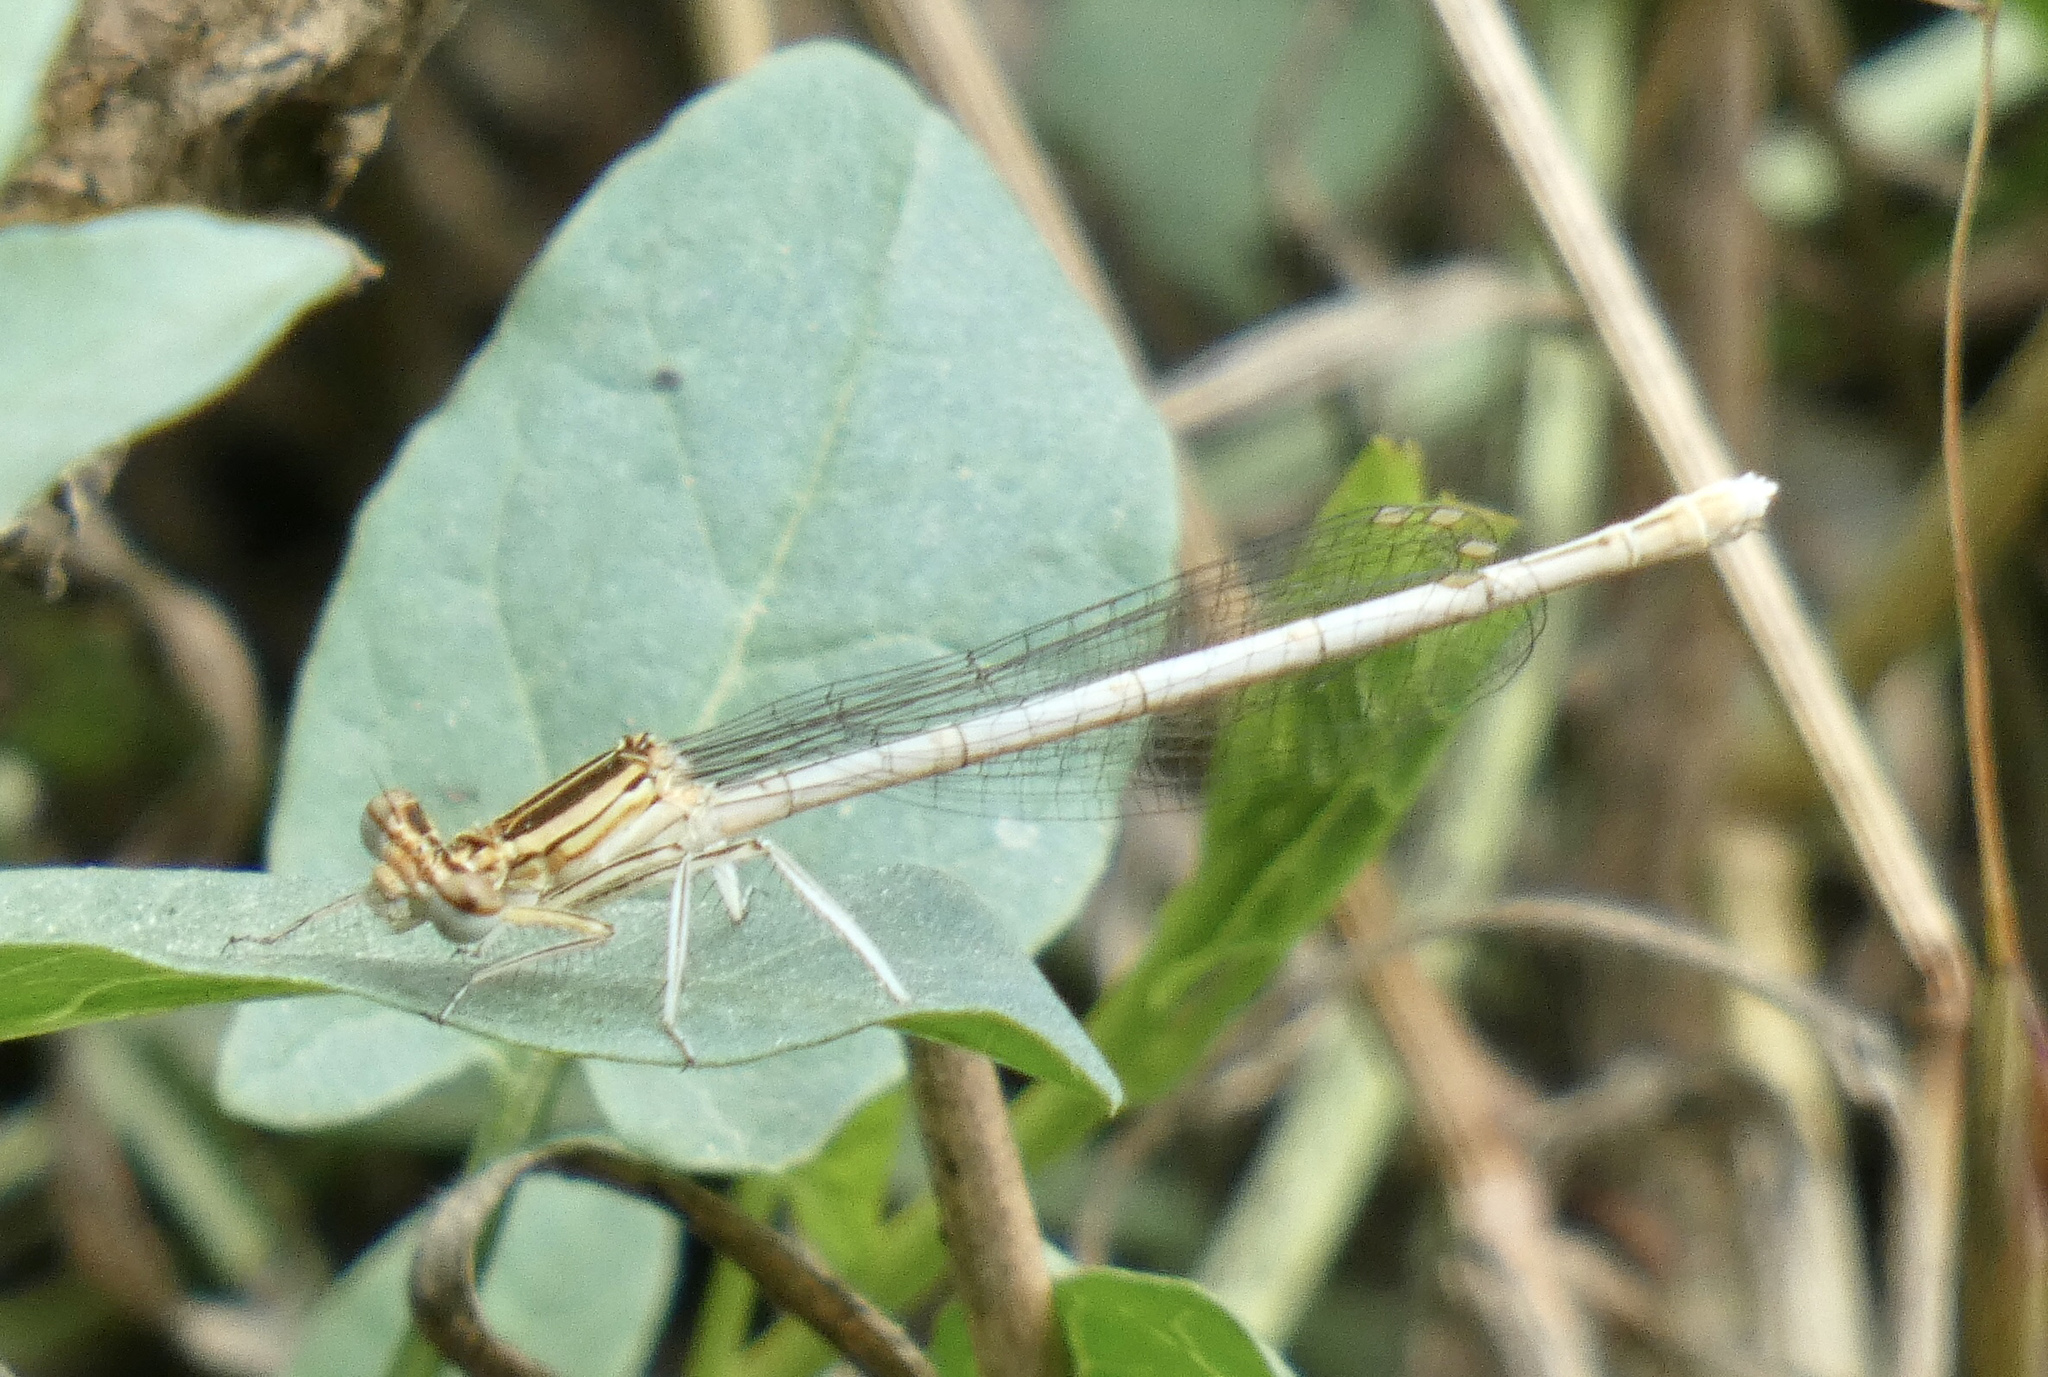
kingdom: Animalia
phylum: Arthropoda
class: Insecta
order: Odonata
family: Platycnemididae
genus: Platycnemis
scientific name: Platycnemis pennipes
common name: White-legged damselfly
